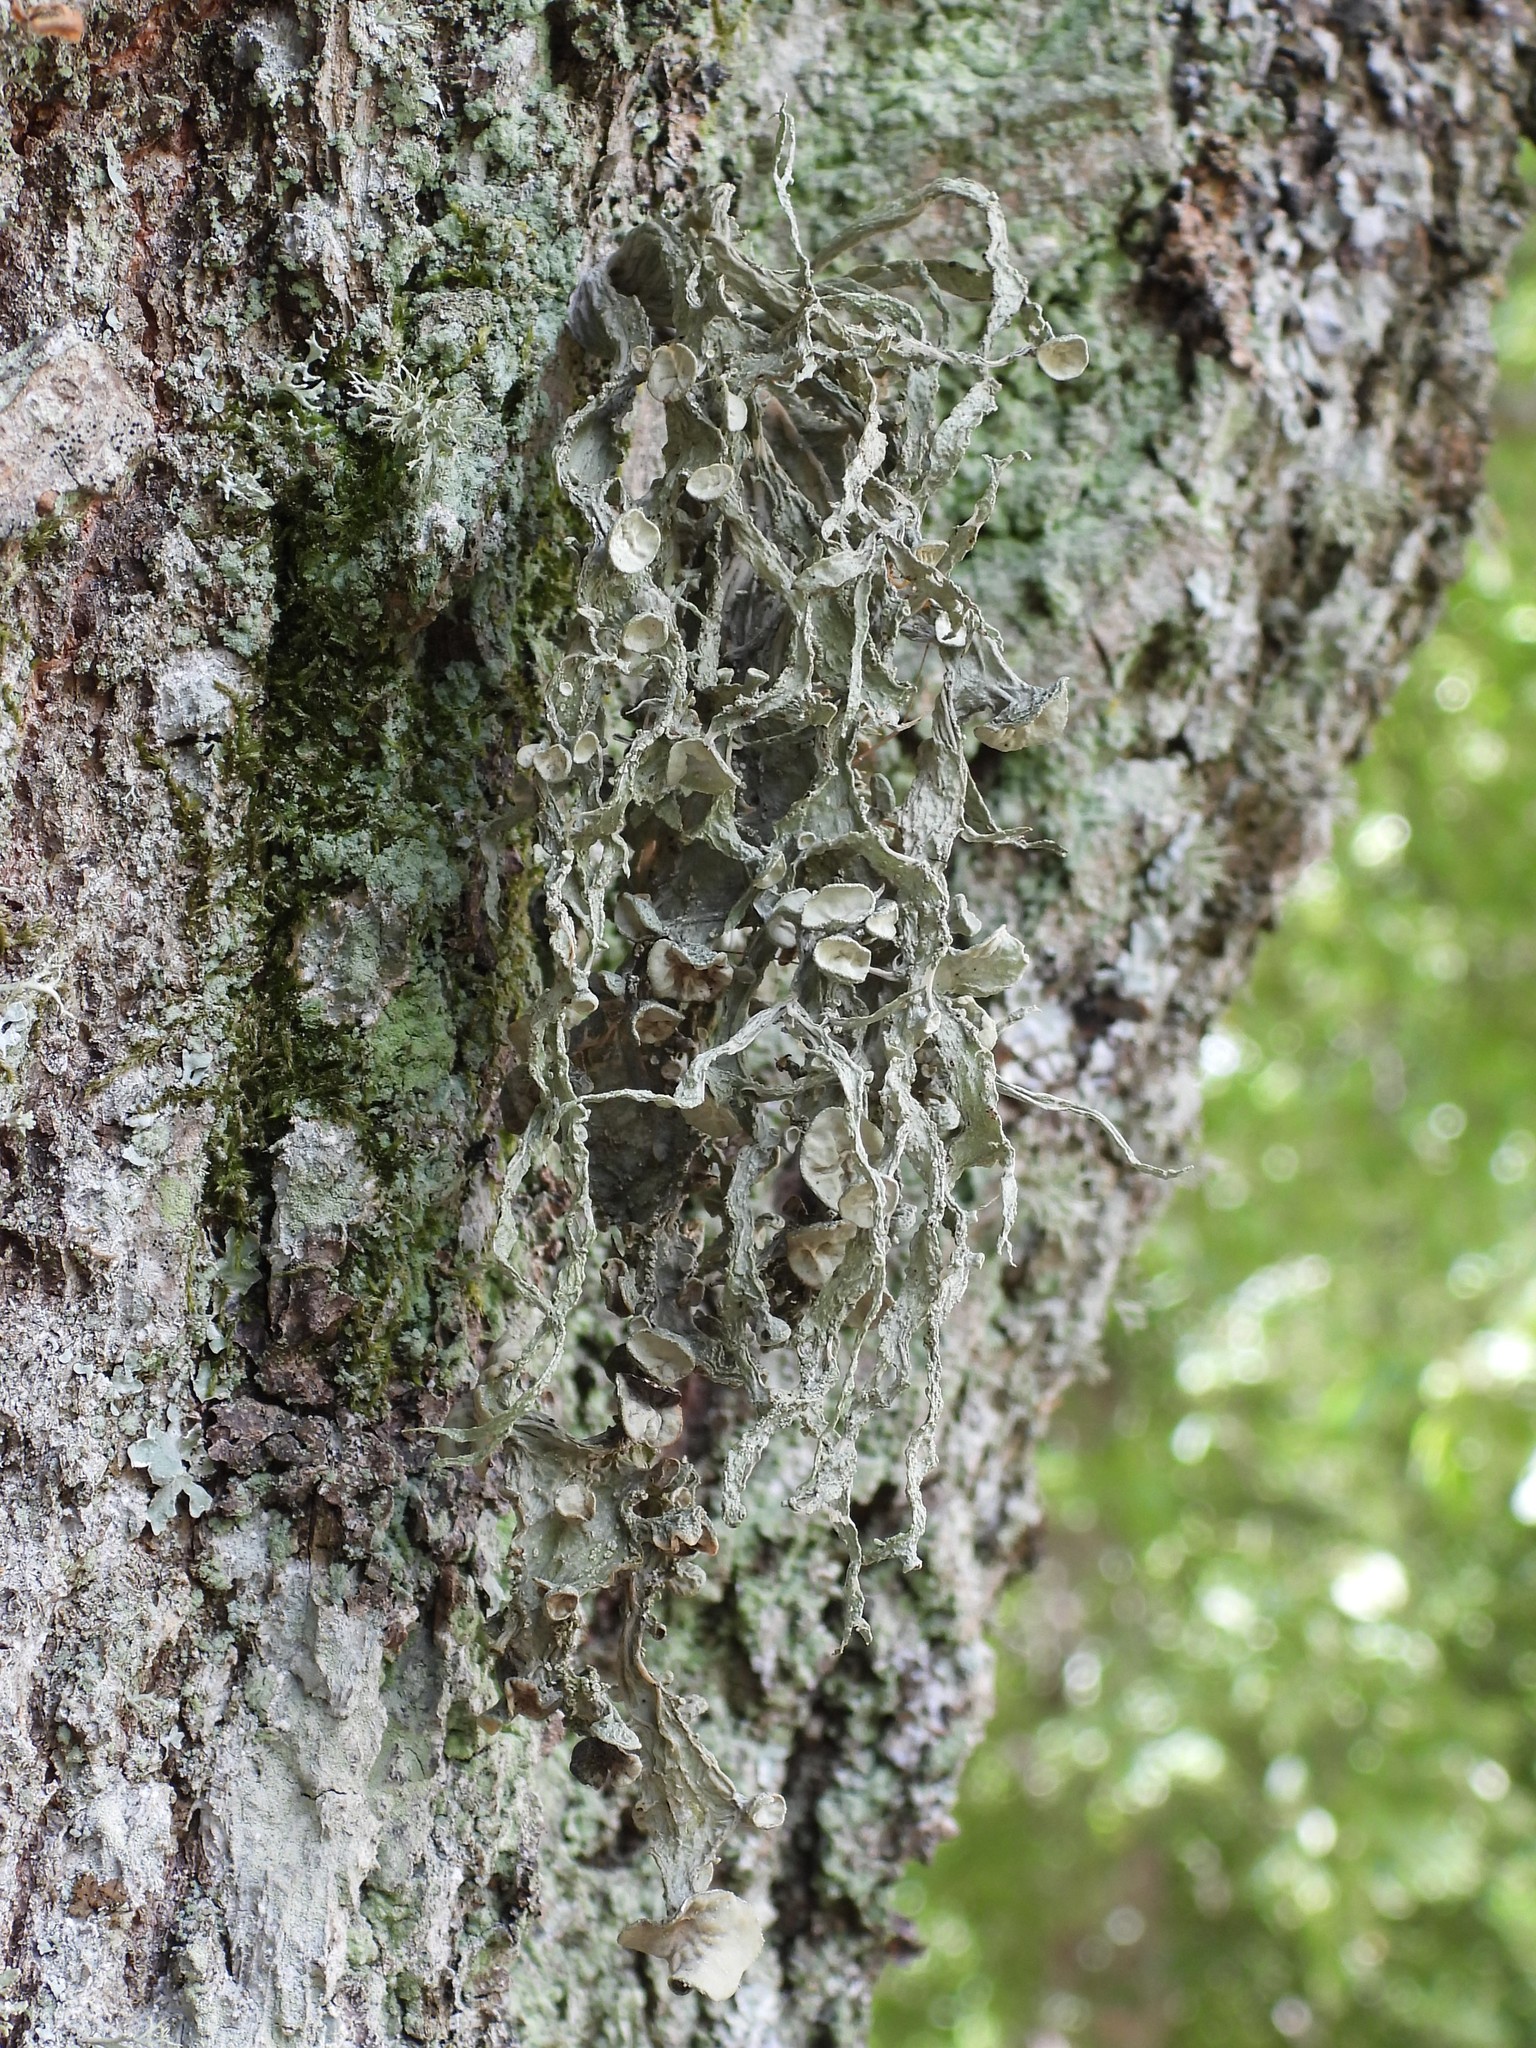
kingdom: Fungi
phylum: Ascomycota
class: Lecanoromycetes
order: Lecanorales
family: Ramalinaceae
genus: Ramalina
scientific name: Ramalina fraxinea
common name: Cartilage lichen
